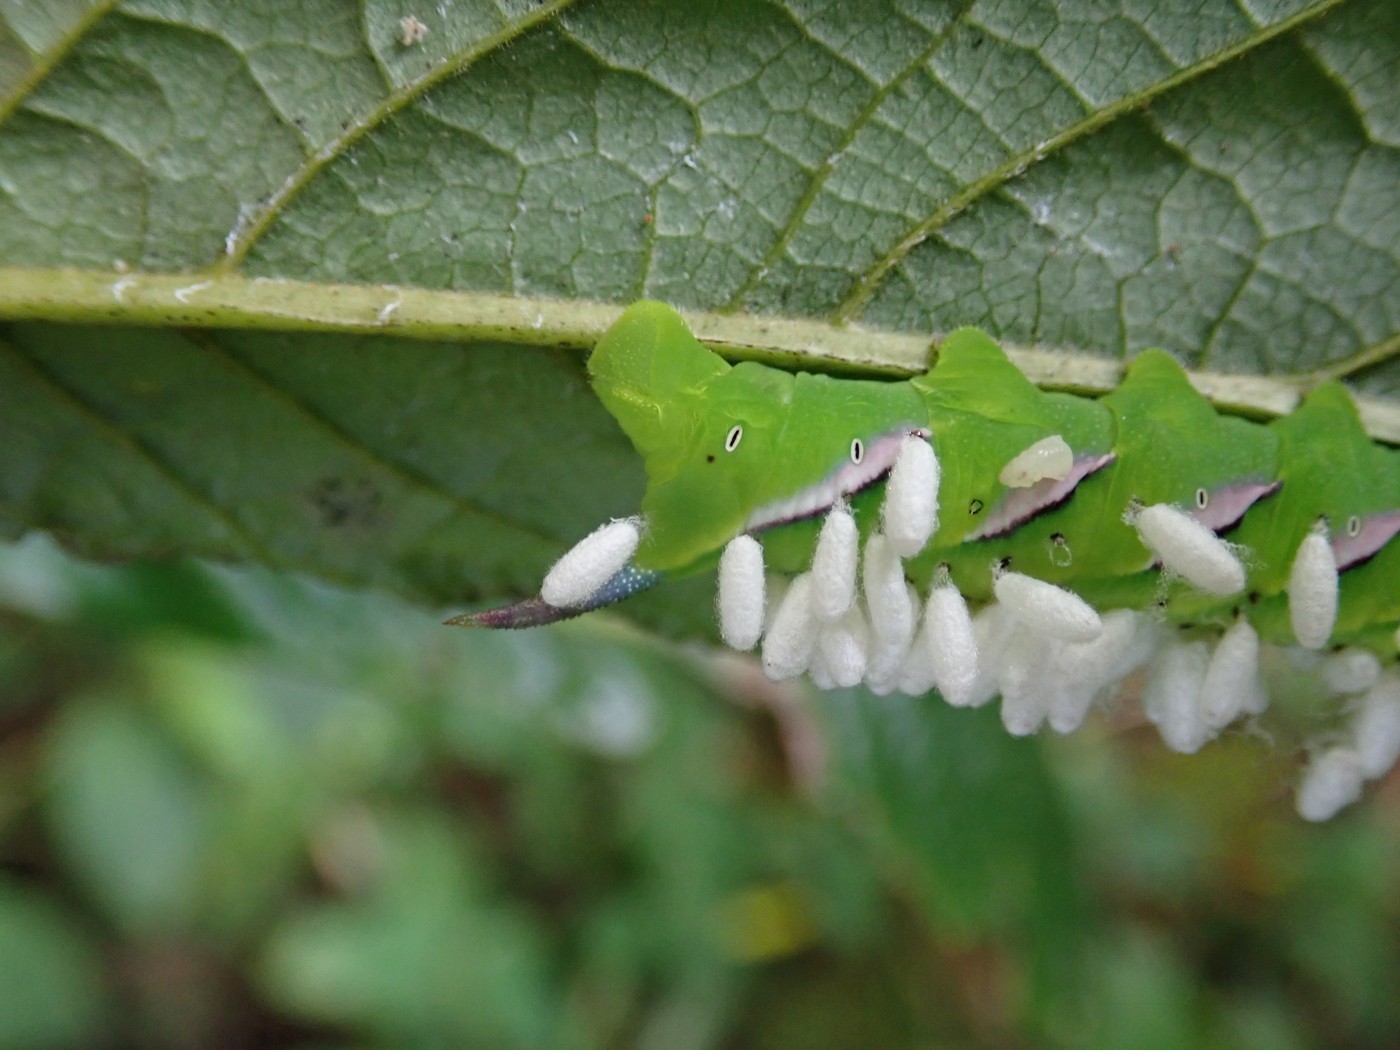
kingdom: Animalia
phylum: Arthropoda
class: Insecta
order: Lepidoptera
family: Sphingidae
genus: Dolba
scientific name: Dolba hyloeus
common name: Pawpaw sphinx
